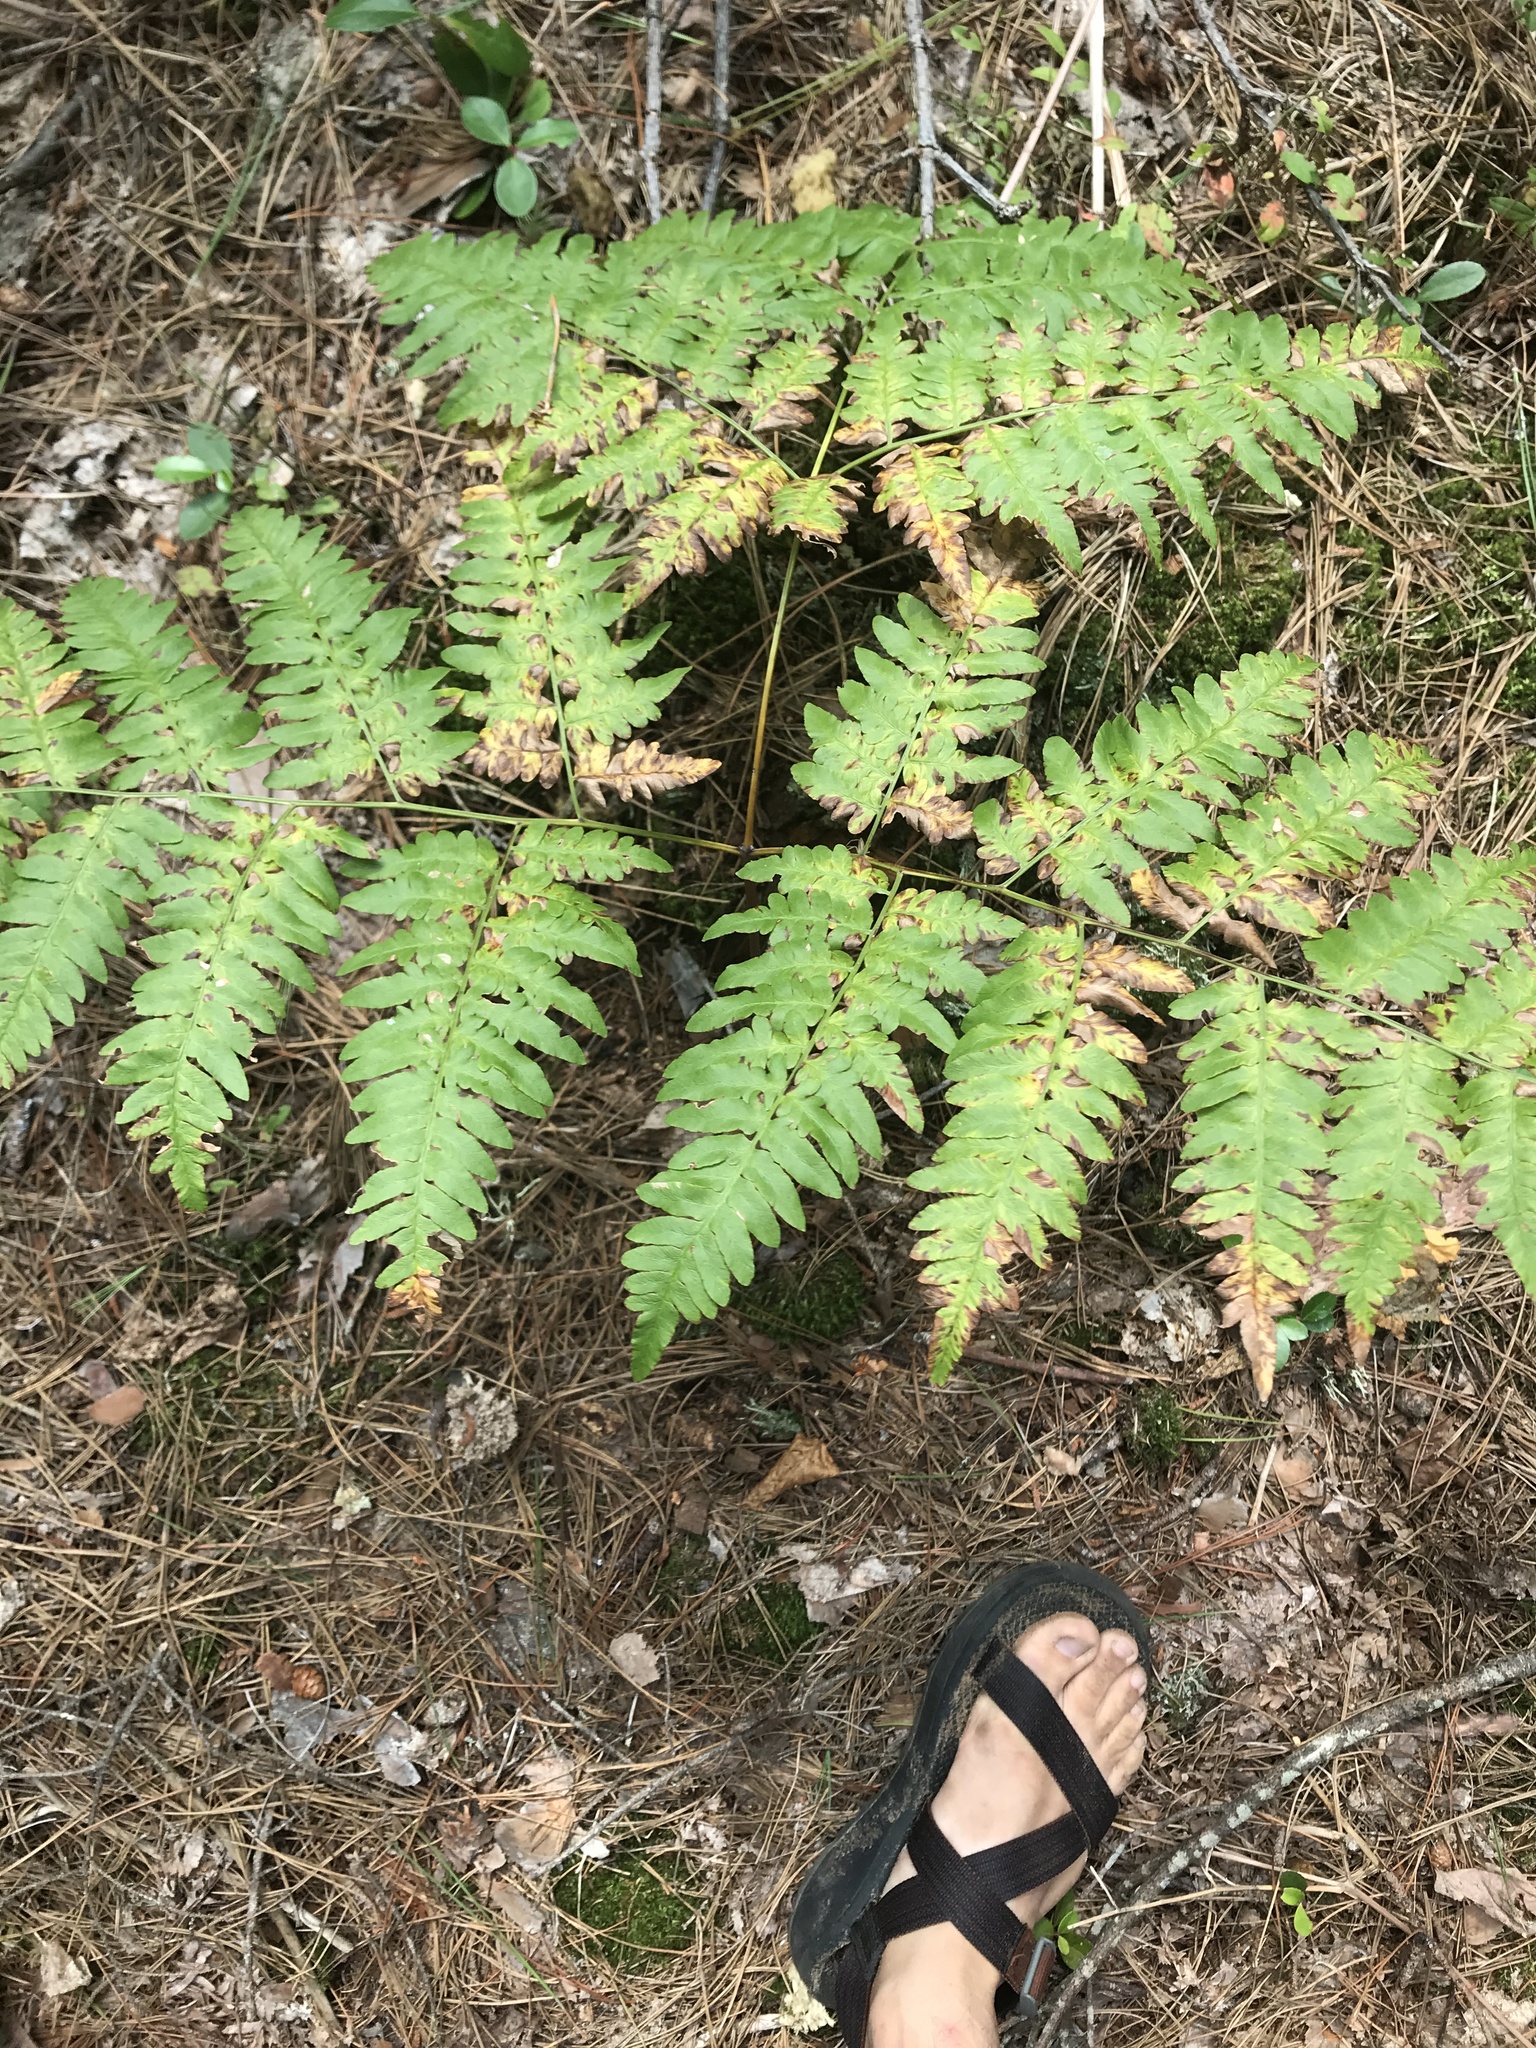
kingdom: Plantae
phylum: Tracheophyta
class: Polypodiopsida
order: Polypodiales
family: Dennstaedtiaceae
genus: Pteridium
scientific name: Pteridium aquilinum
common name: Bracken
